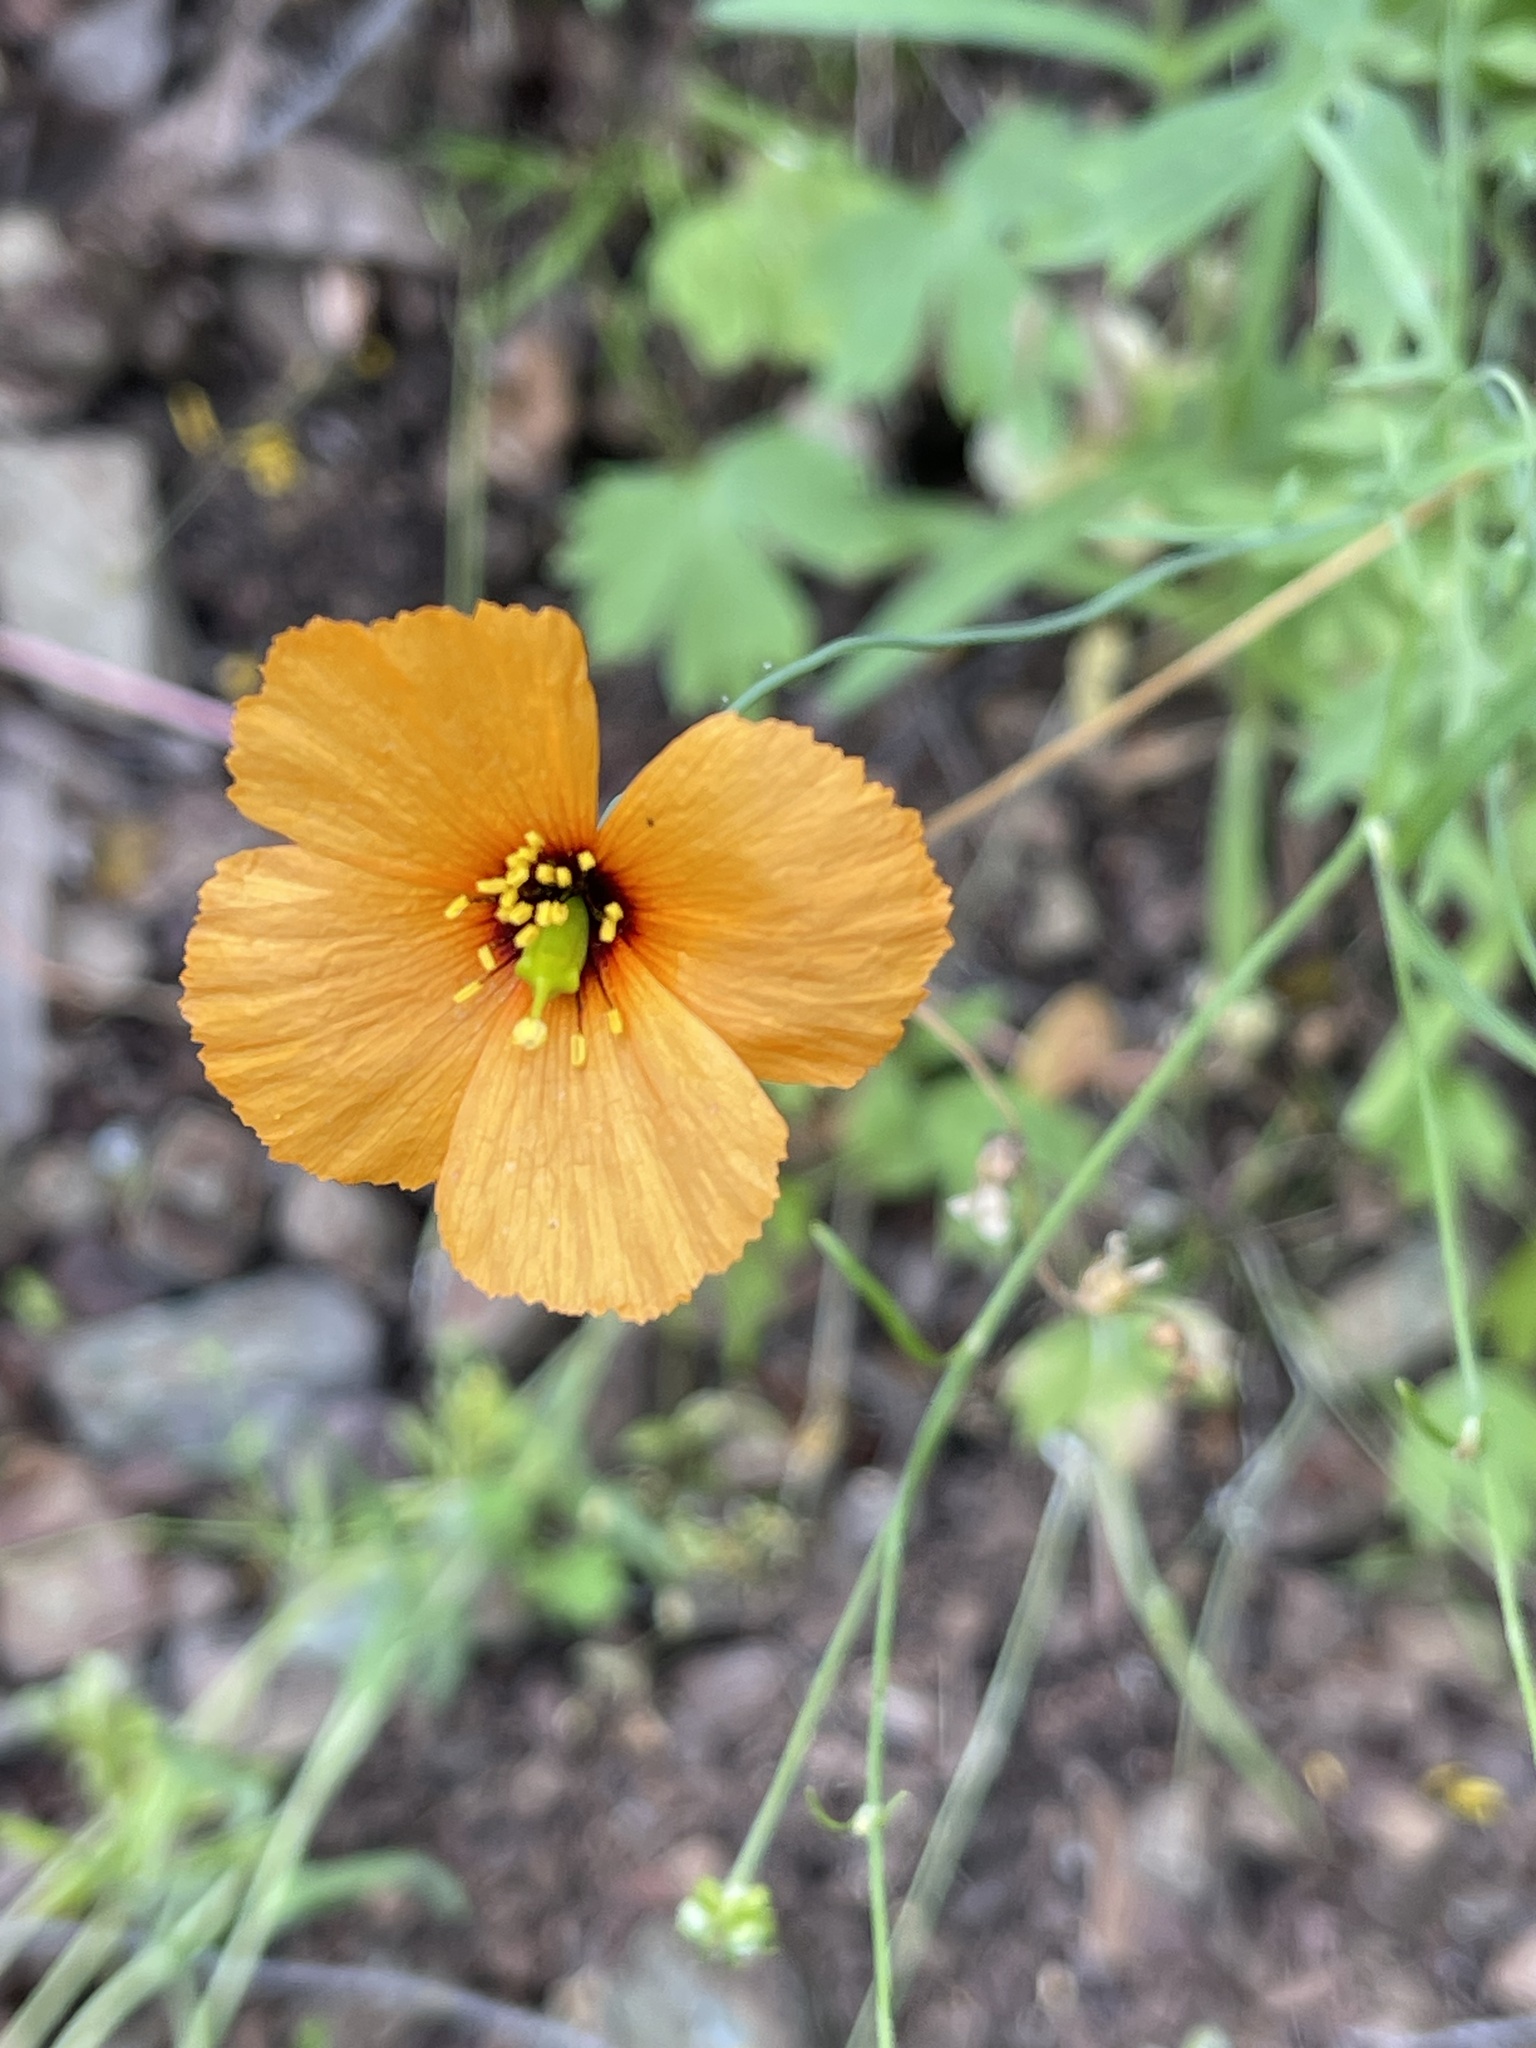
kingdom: Plantae
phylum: Tracheophyta
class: Magnoliopsida
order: Ranunculales
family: Papaveraceae
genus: Stylomecon
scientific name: Stylomecon heterophylla
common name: Flaming-poppy
